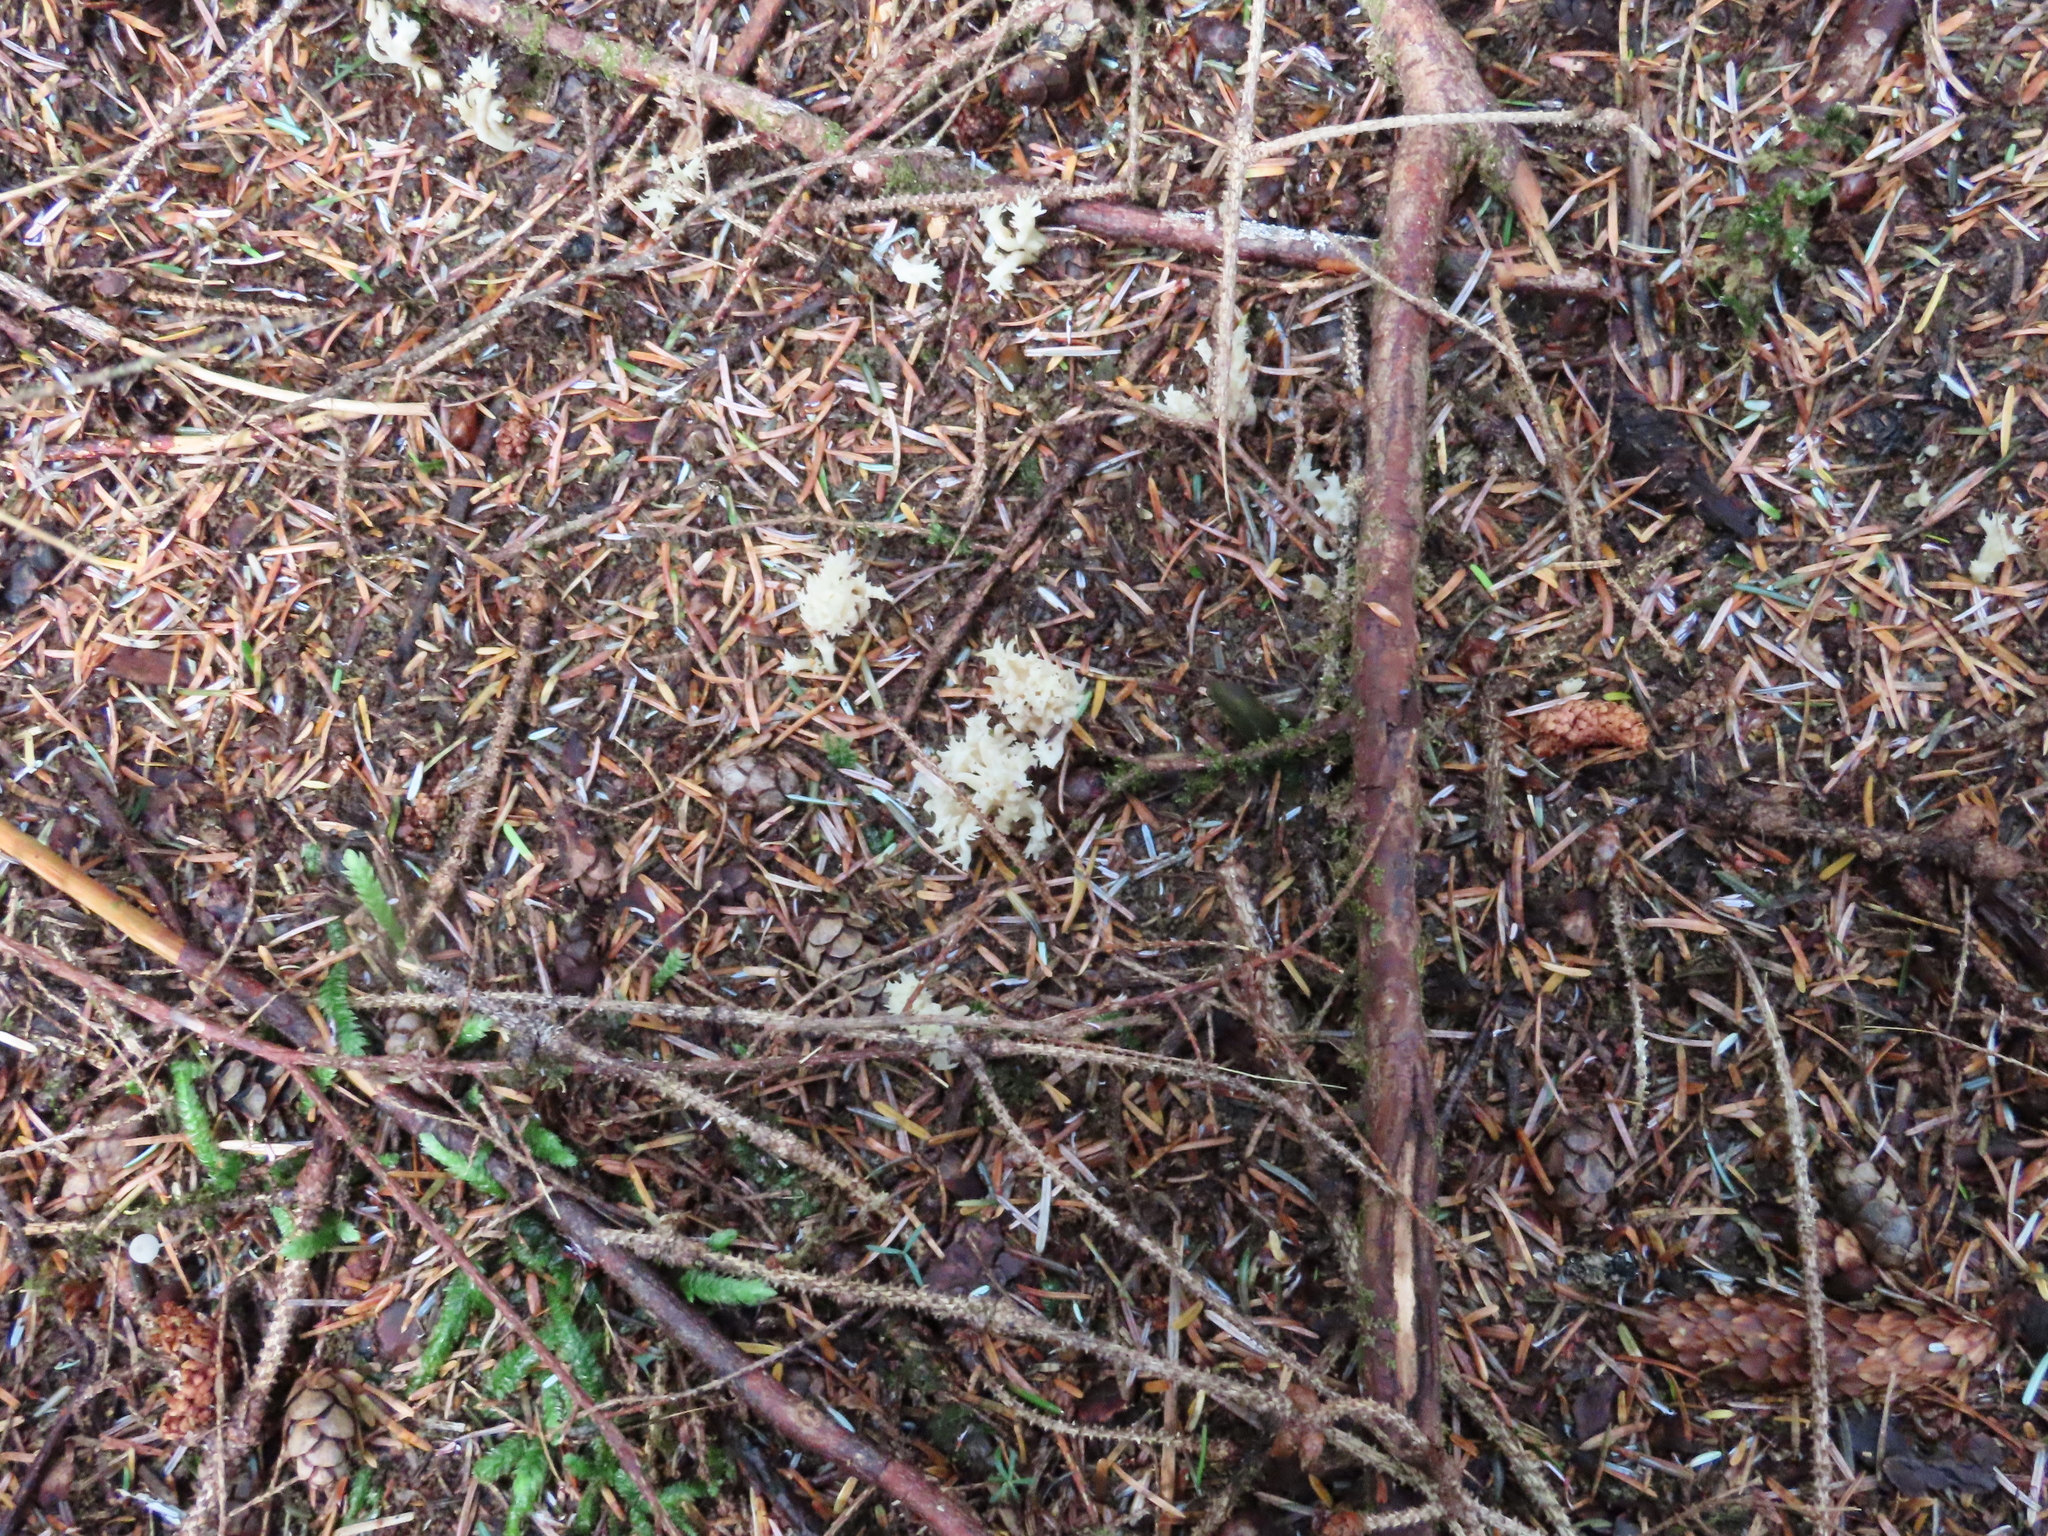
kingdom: Fungi
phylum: Basidiomycota
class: Agaricomycetes
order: Cantharellales
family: Hydnaceae
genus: Clavulina
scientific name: Clavulina coralloides
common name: Crested coral
